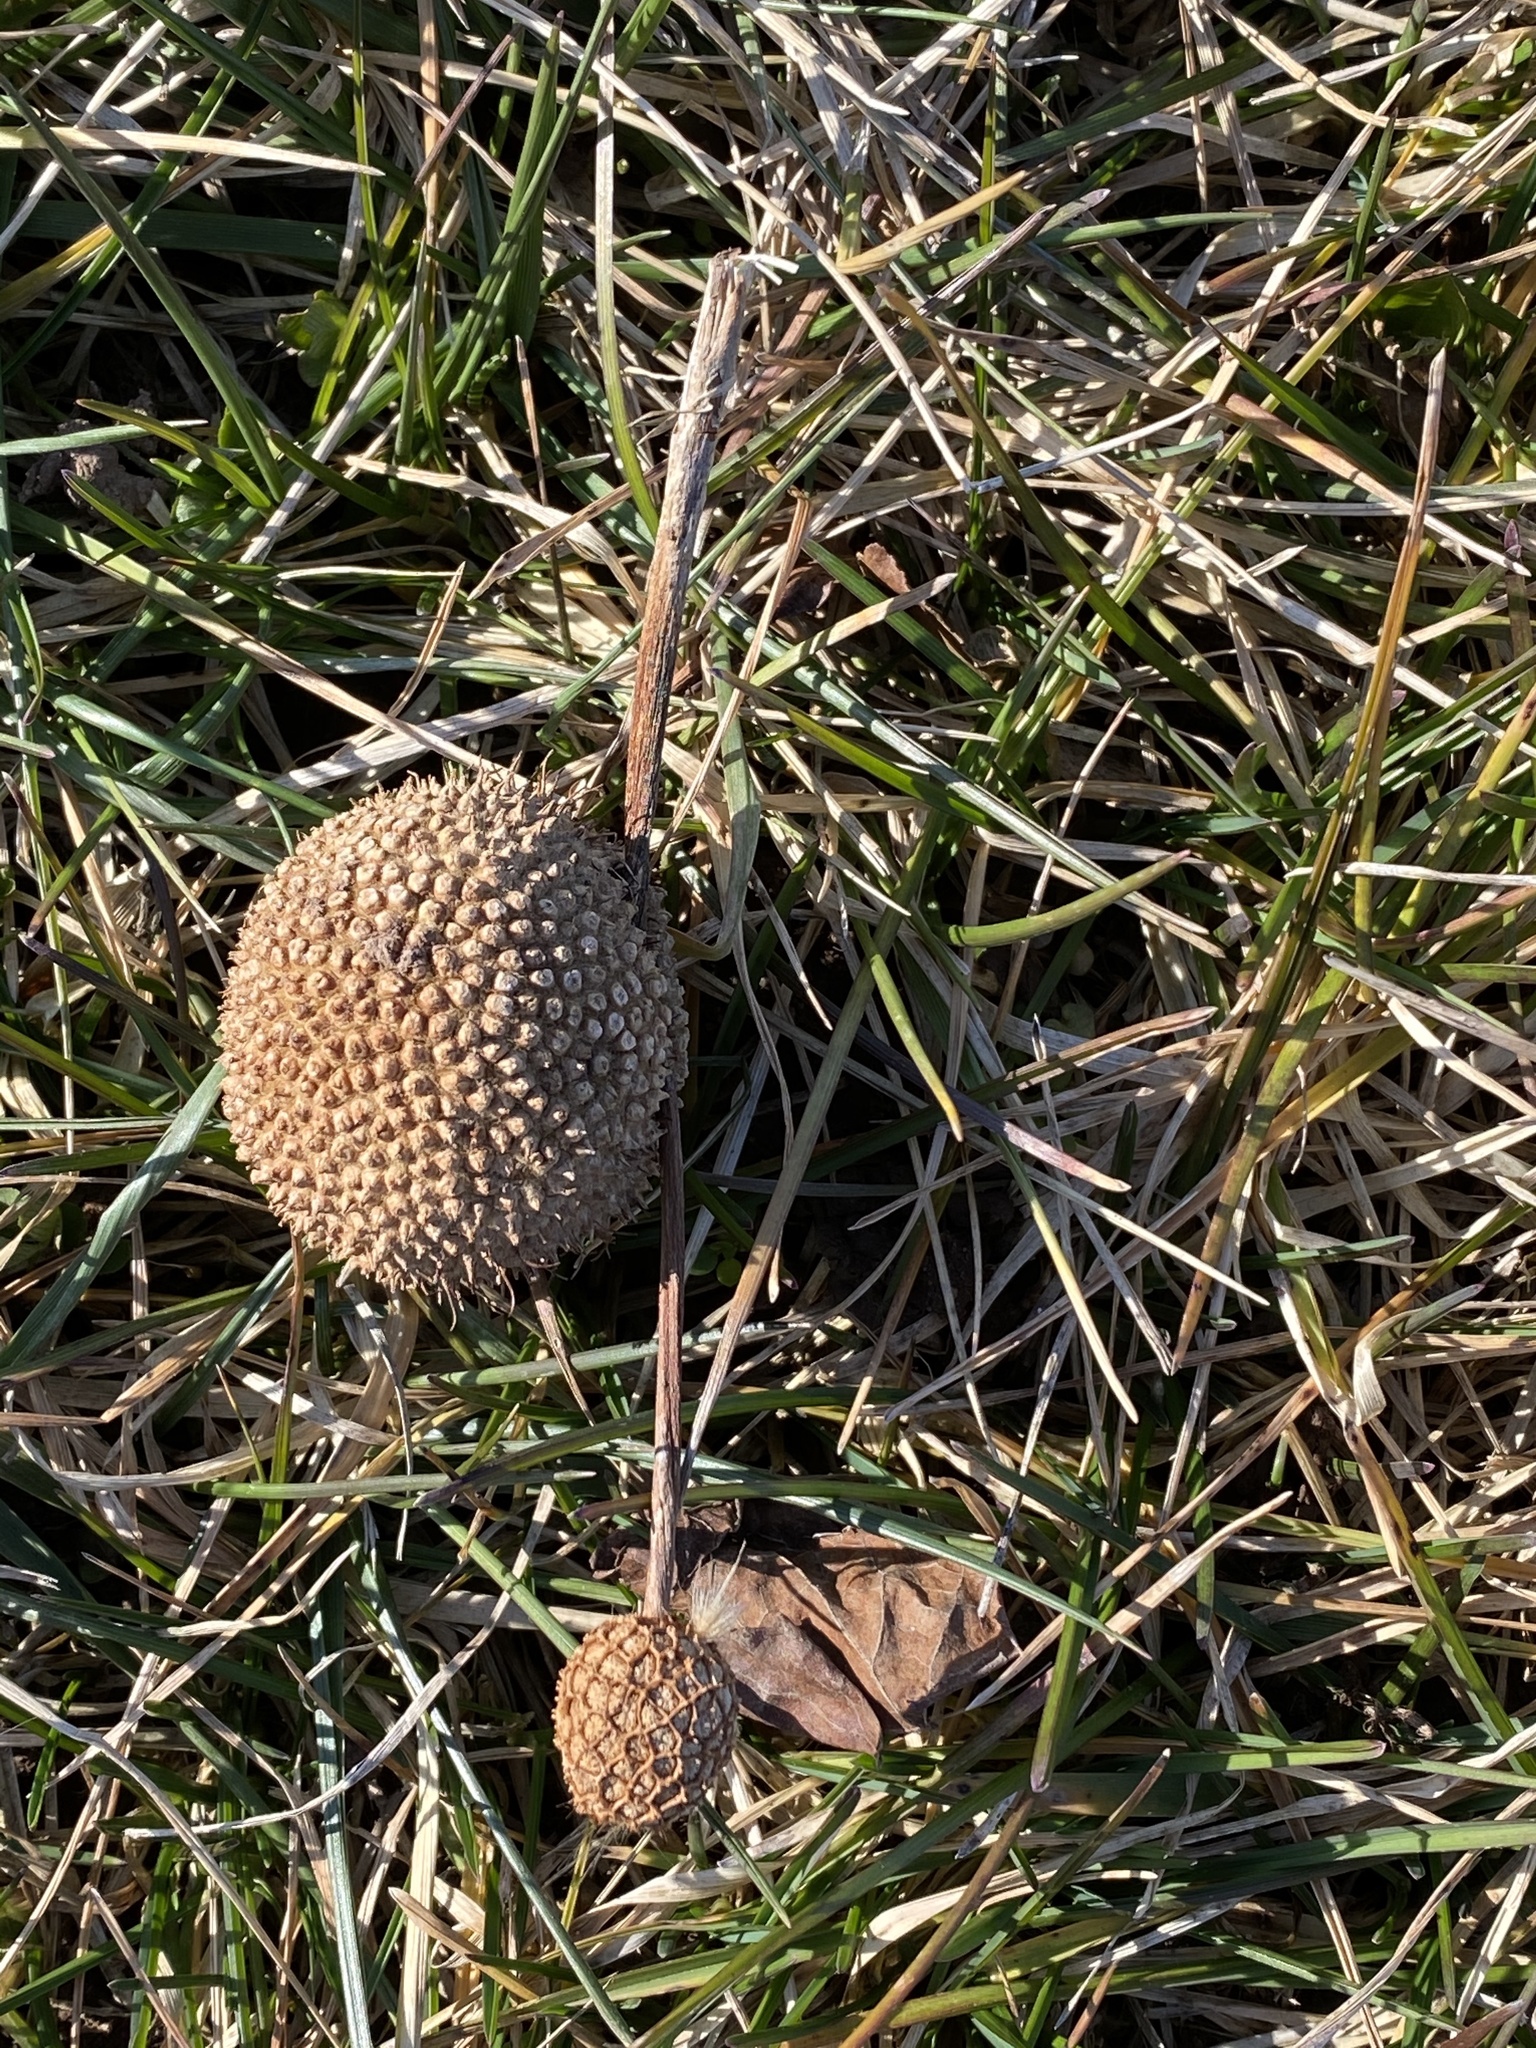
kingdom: Plantae
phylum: Tracheophyta
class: Magnoliopsida
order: Proteales
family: Platanaceae
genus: Platanus
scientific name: Platanus hispanica
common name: London plane
